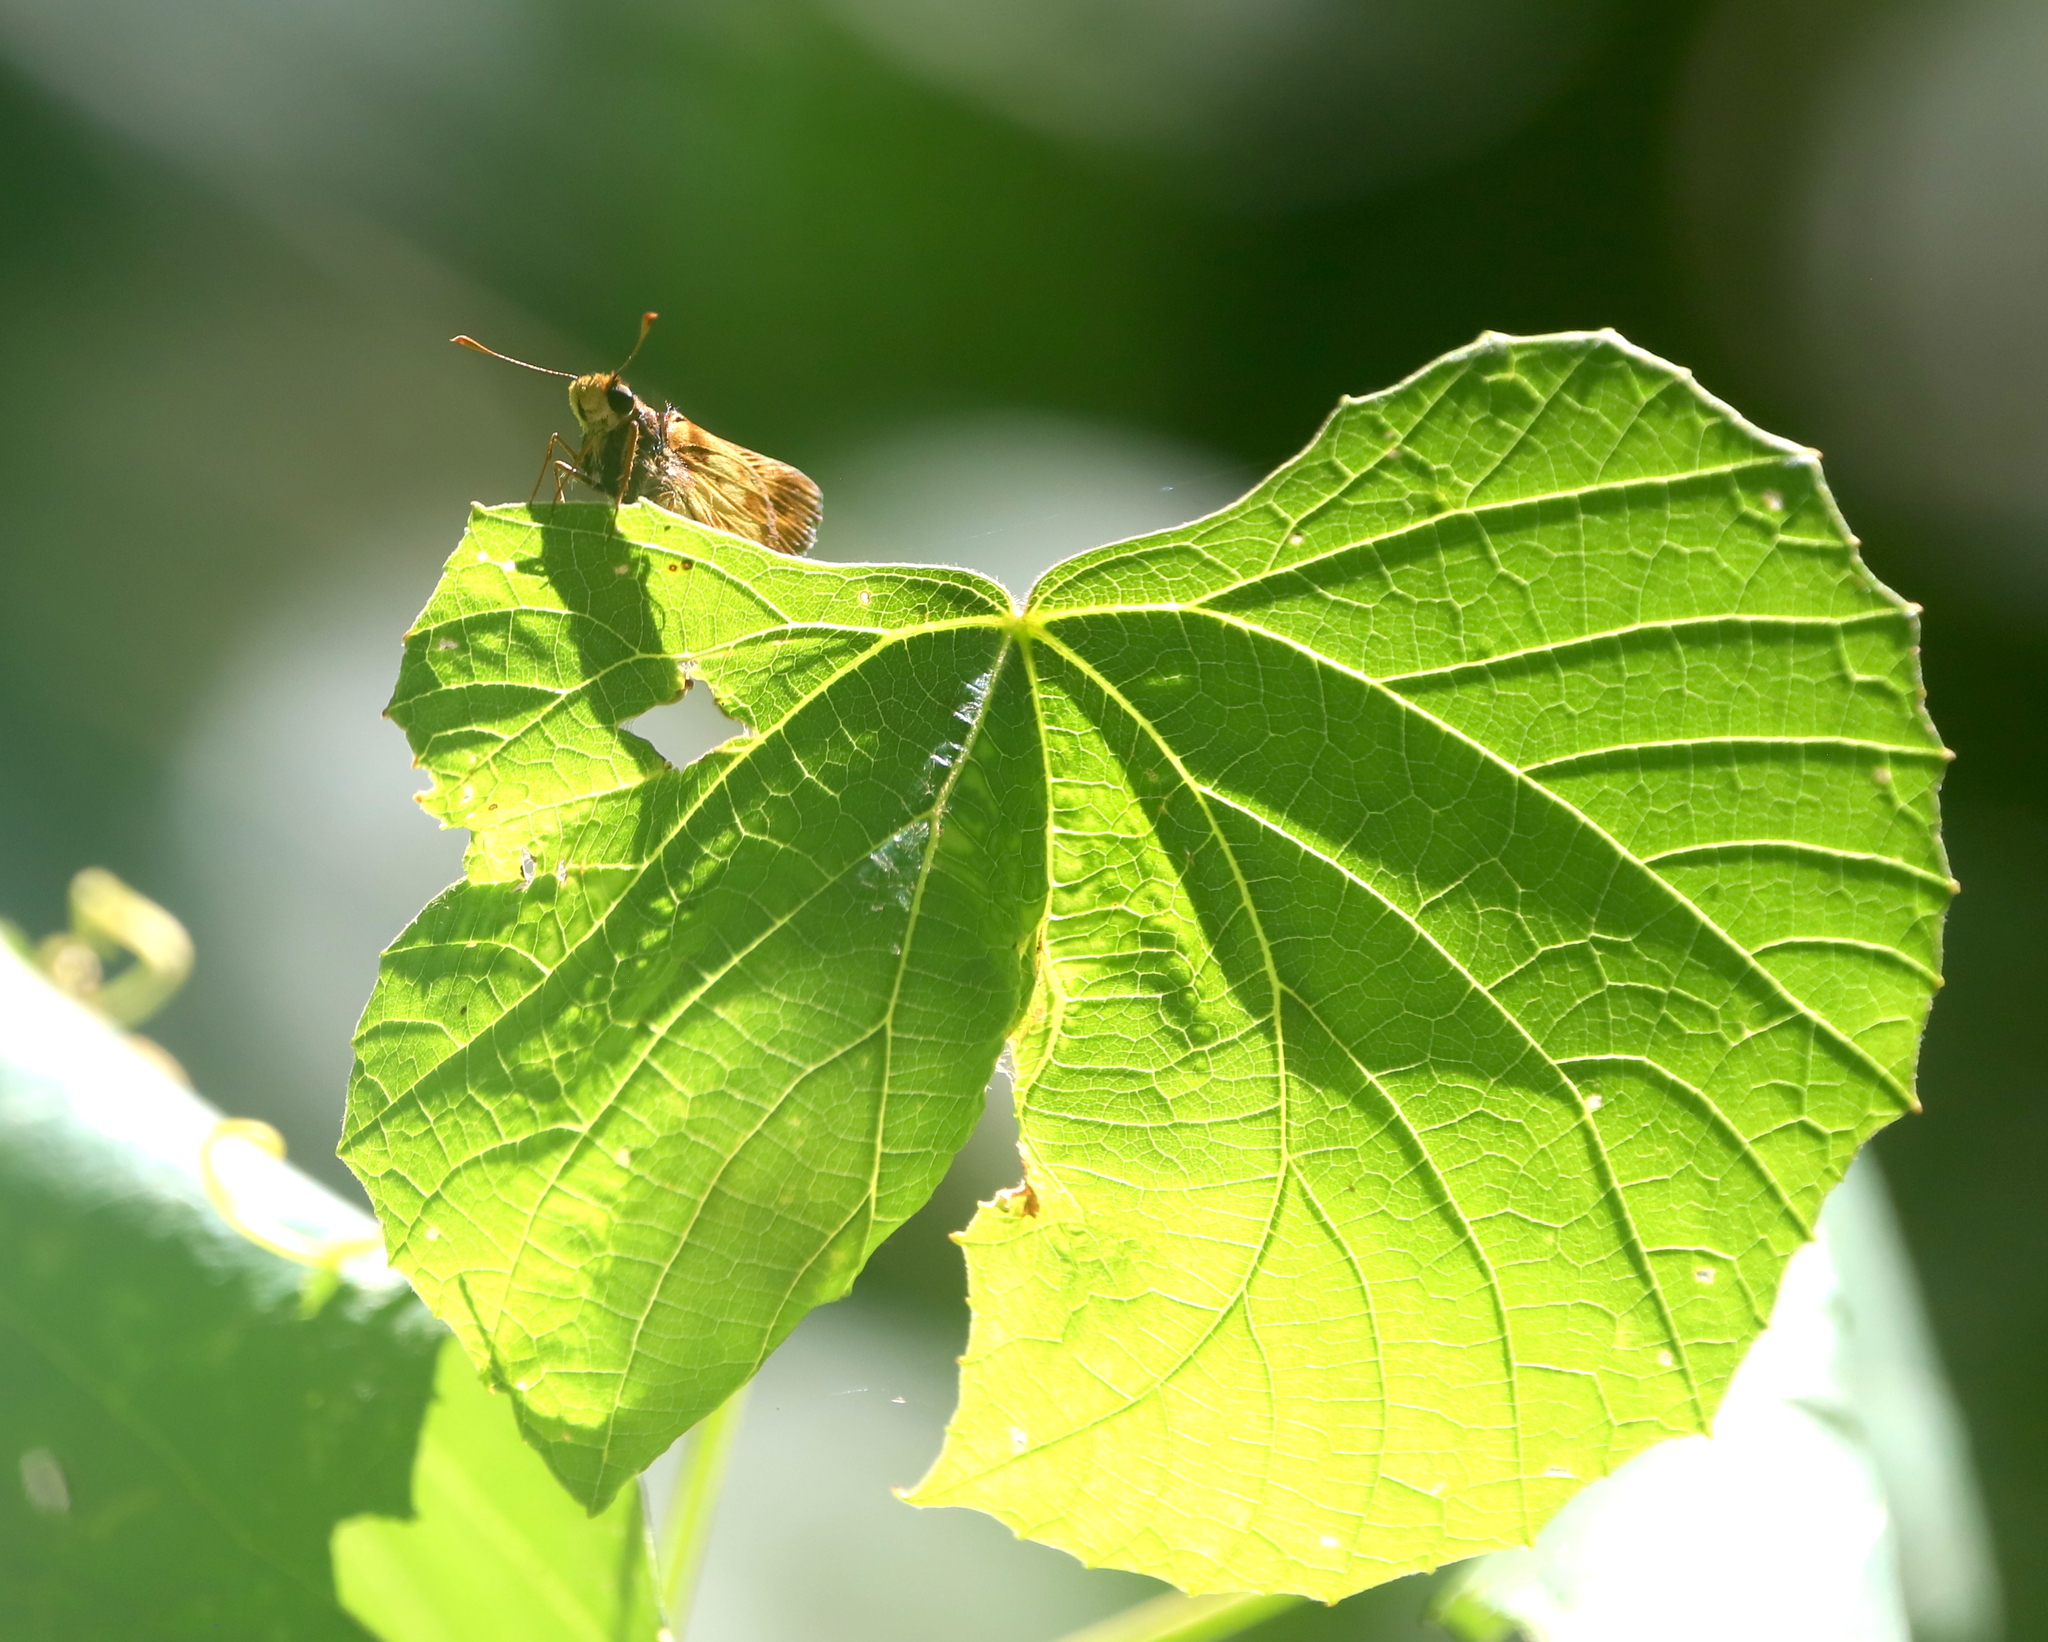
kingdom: Animalia
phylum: Arthropoda
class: Insecta
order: Lepidoptera
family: Hesperiidae
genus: Lon
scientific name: Lon zabulon
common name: Zabulon skipper
